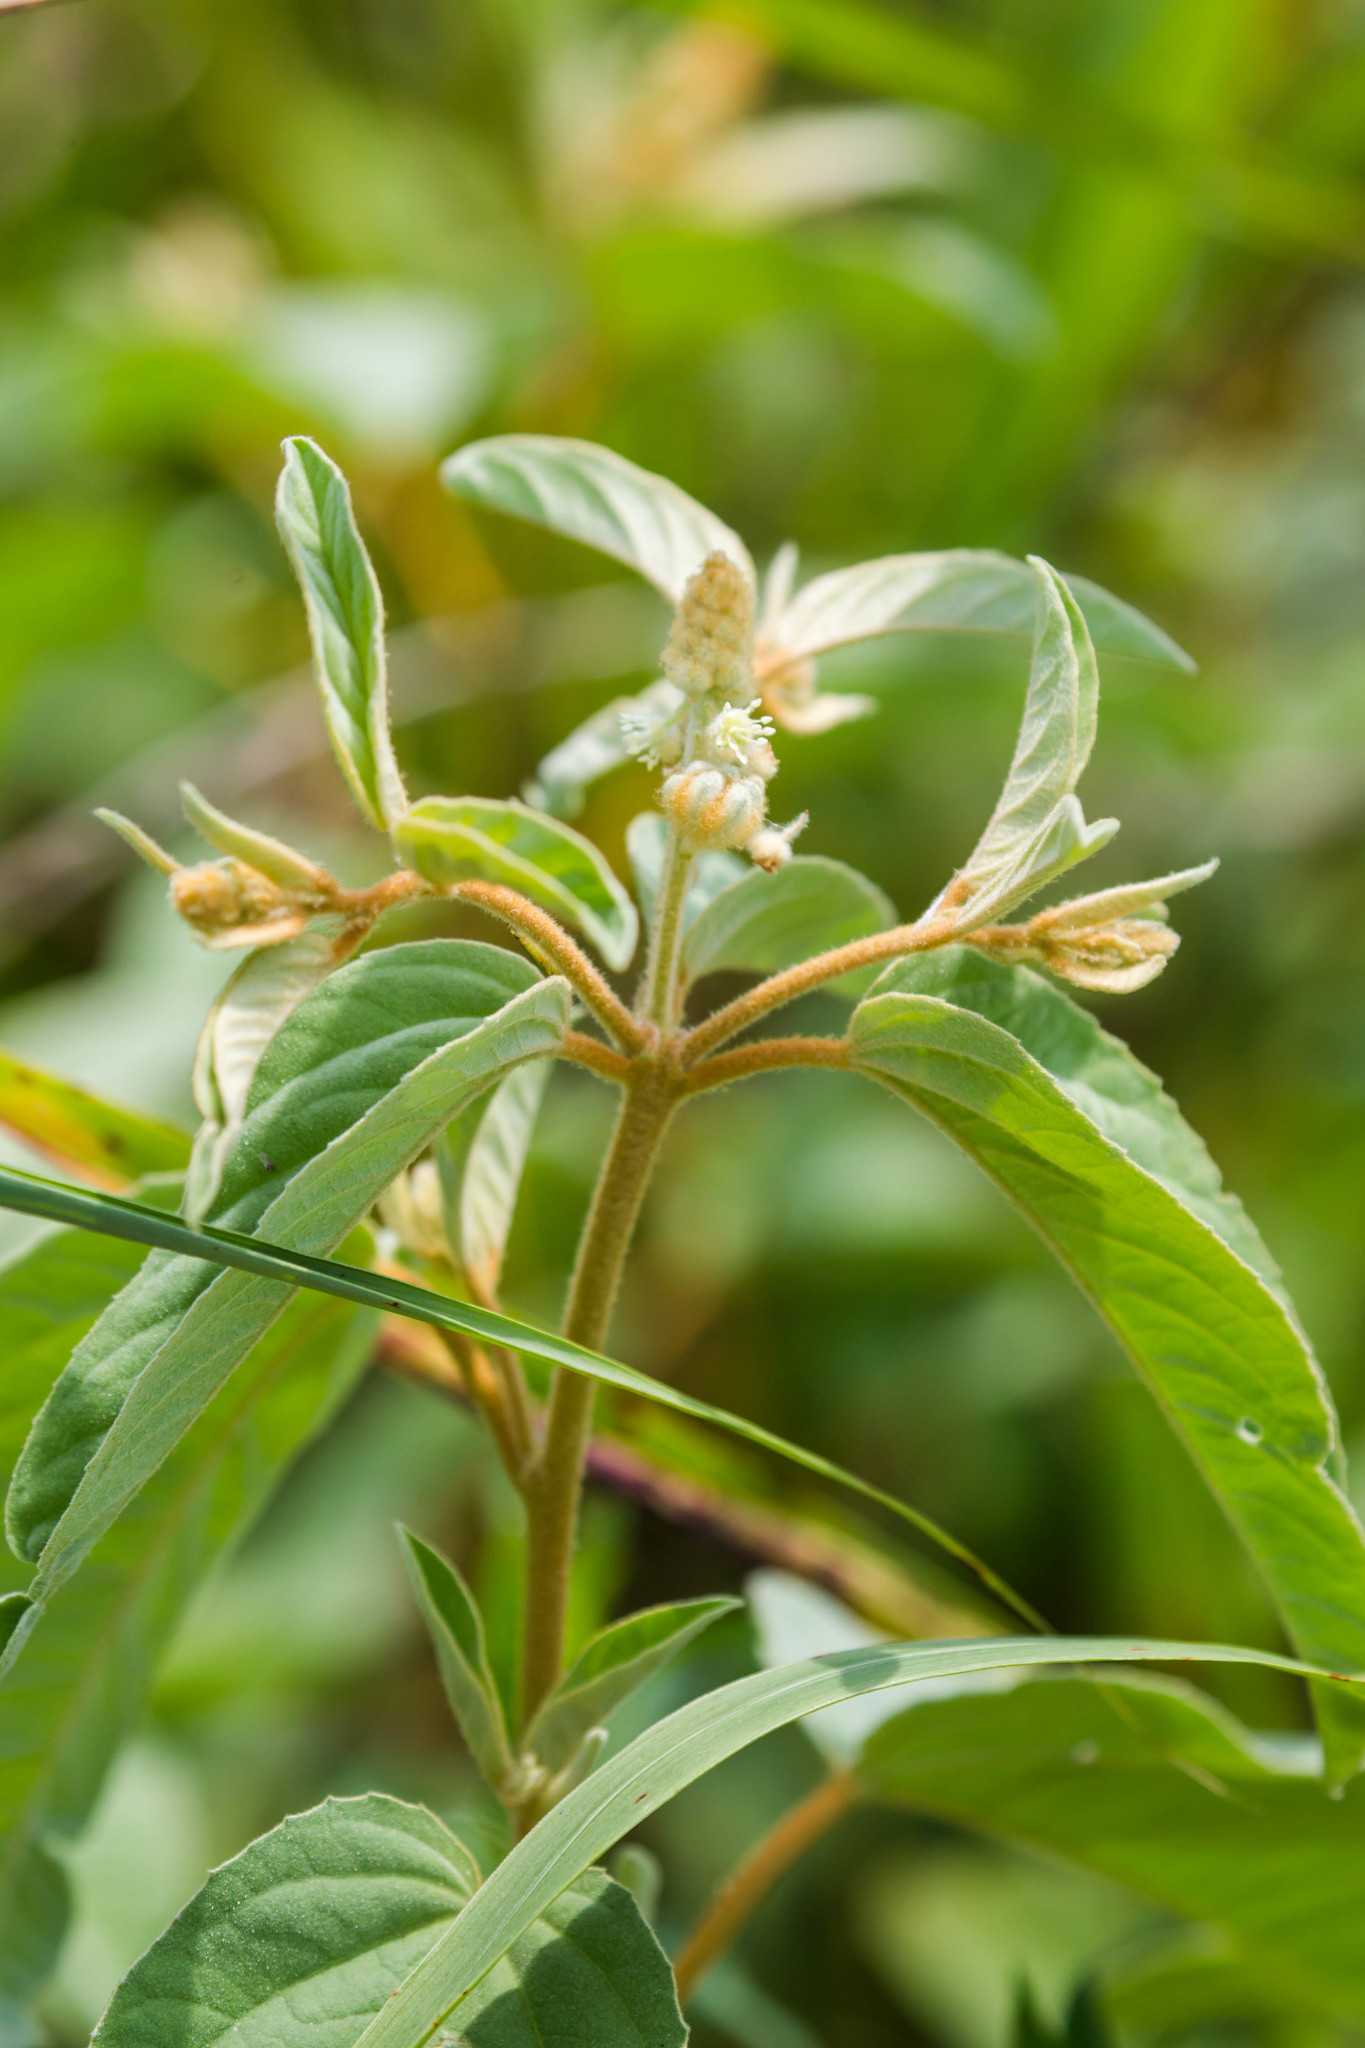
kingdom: Plantae
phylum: Tracheophyta
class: Magnoliopsida
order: Malpighiales
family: Euphorbiaceae
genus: Croton
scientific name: Croton lindheimeri
